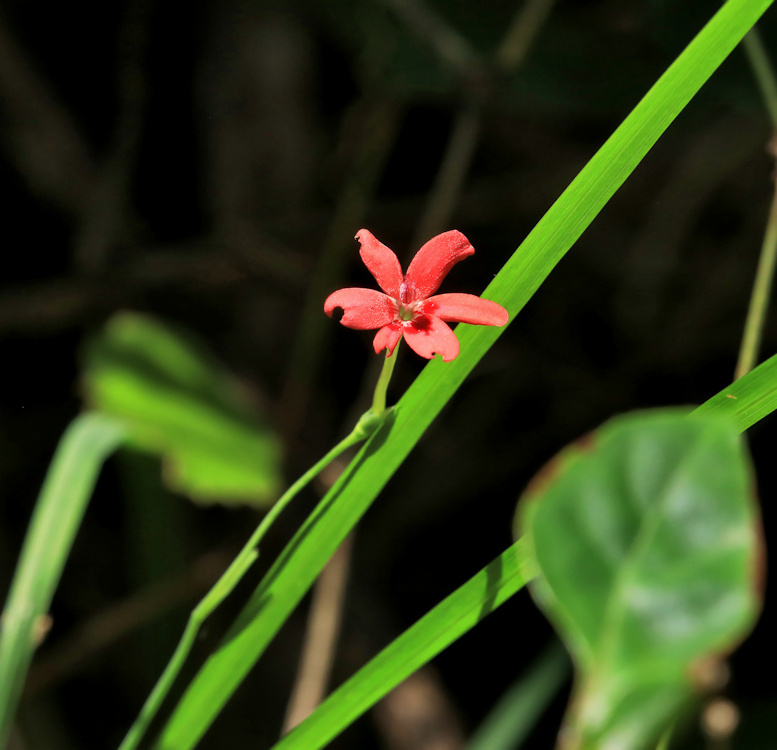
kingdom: Plantae
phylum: Tracheophyta
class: Liliopsida
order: Asparagales
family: Iridaceae
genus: Freesia
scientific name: Freesia laxa
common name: False freesia
